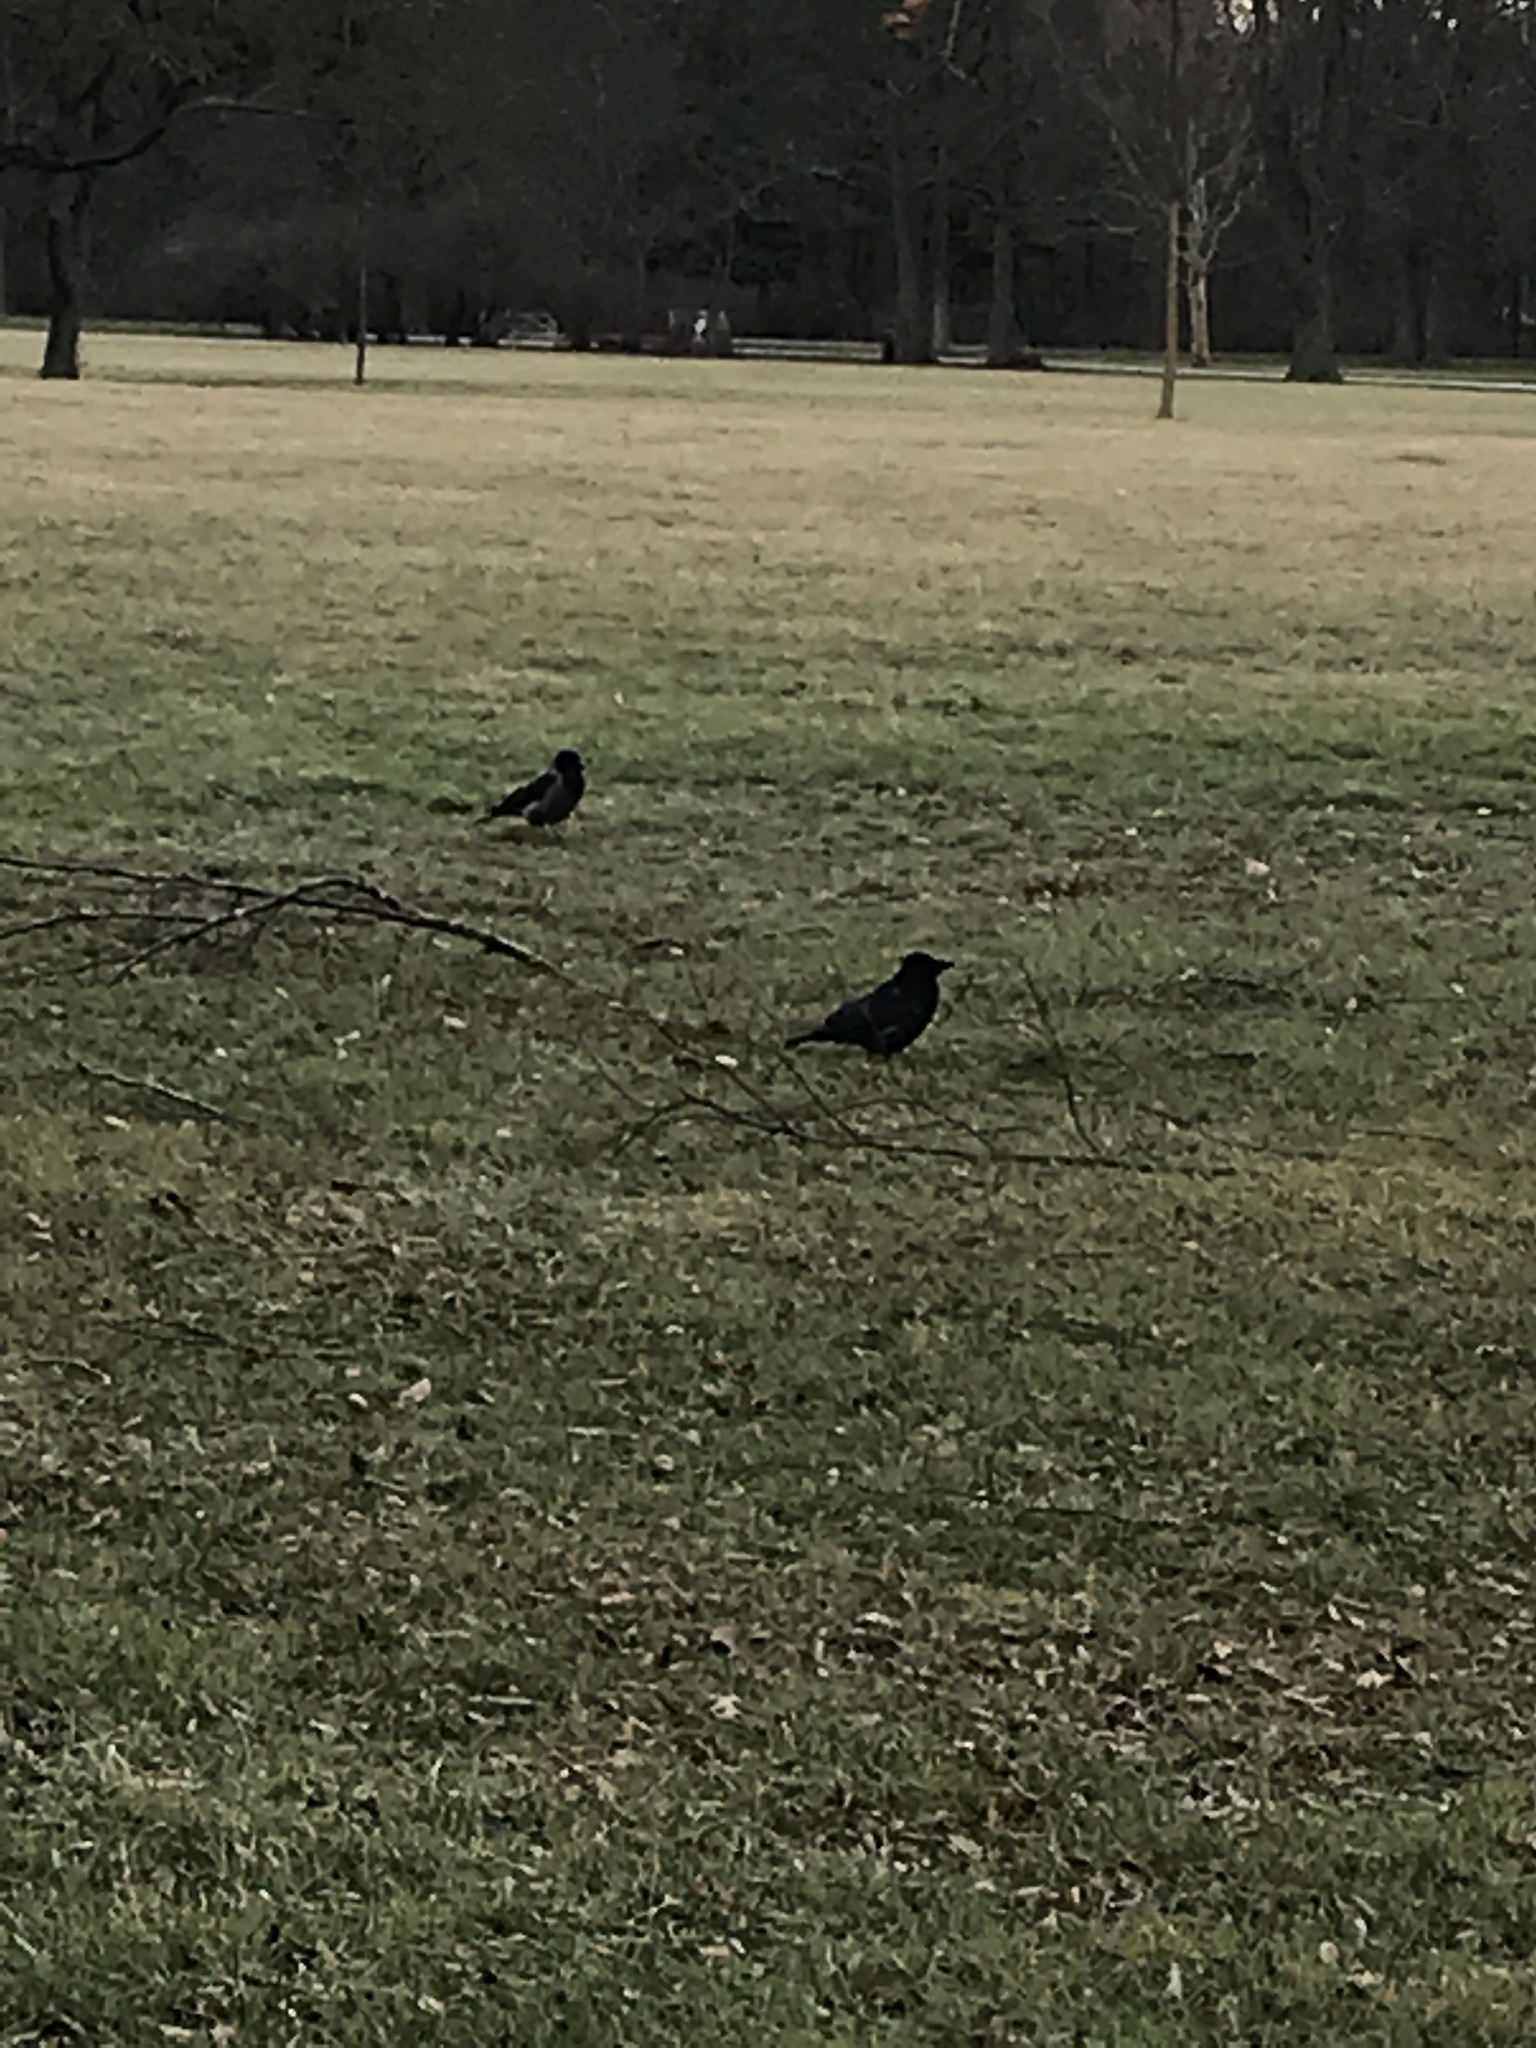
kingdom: Animalia
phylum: Chordata
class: Aves
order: Passeriformes
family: Corvidae
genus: Corvus
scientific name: Corvus
